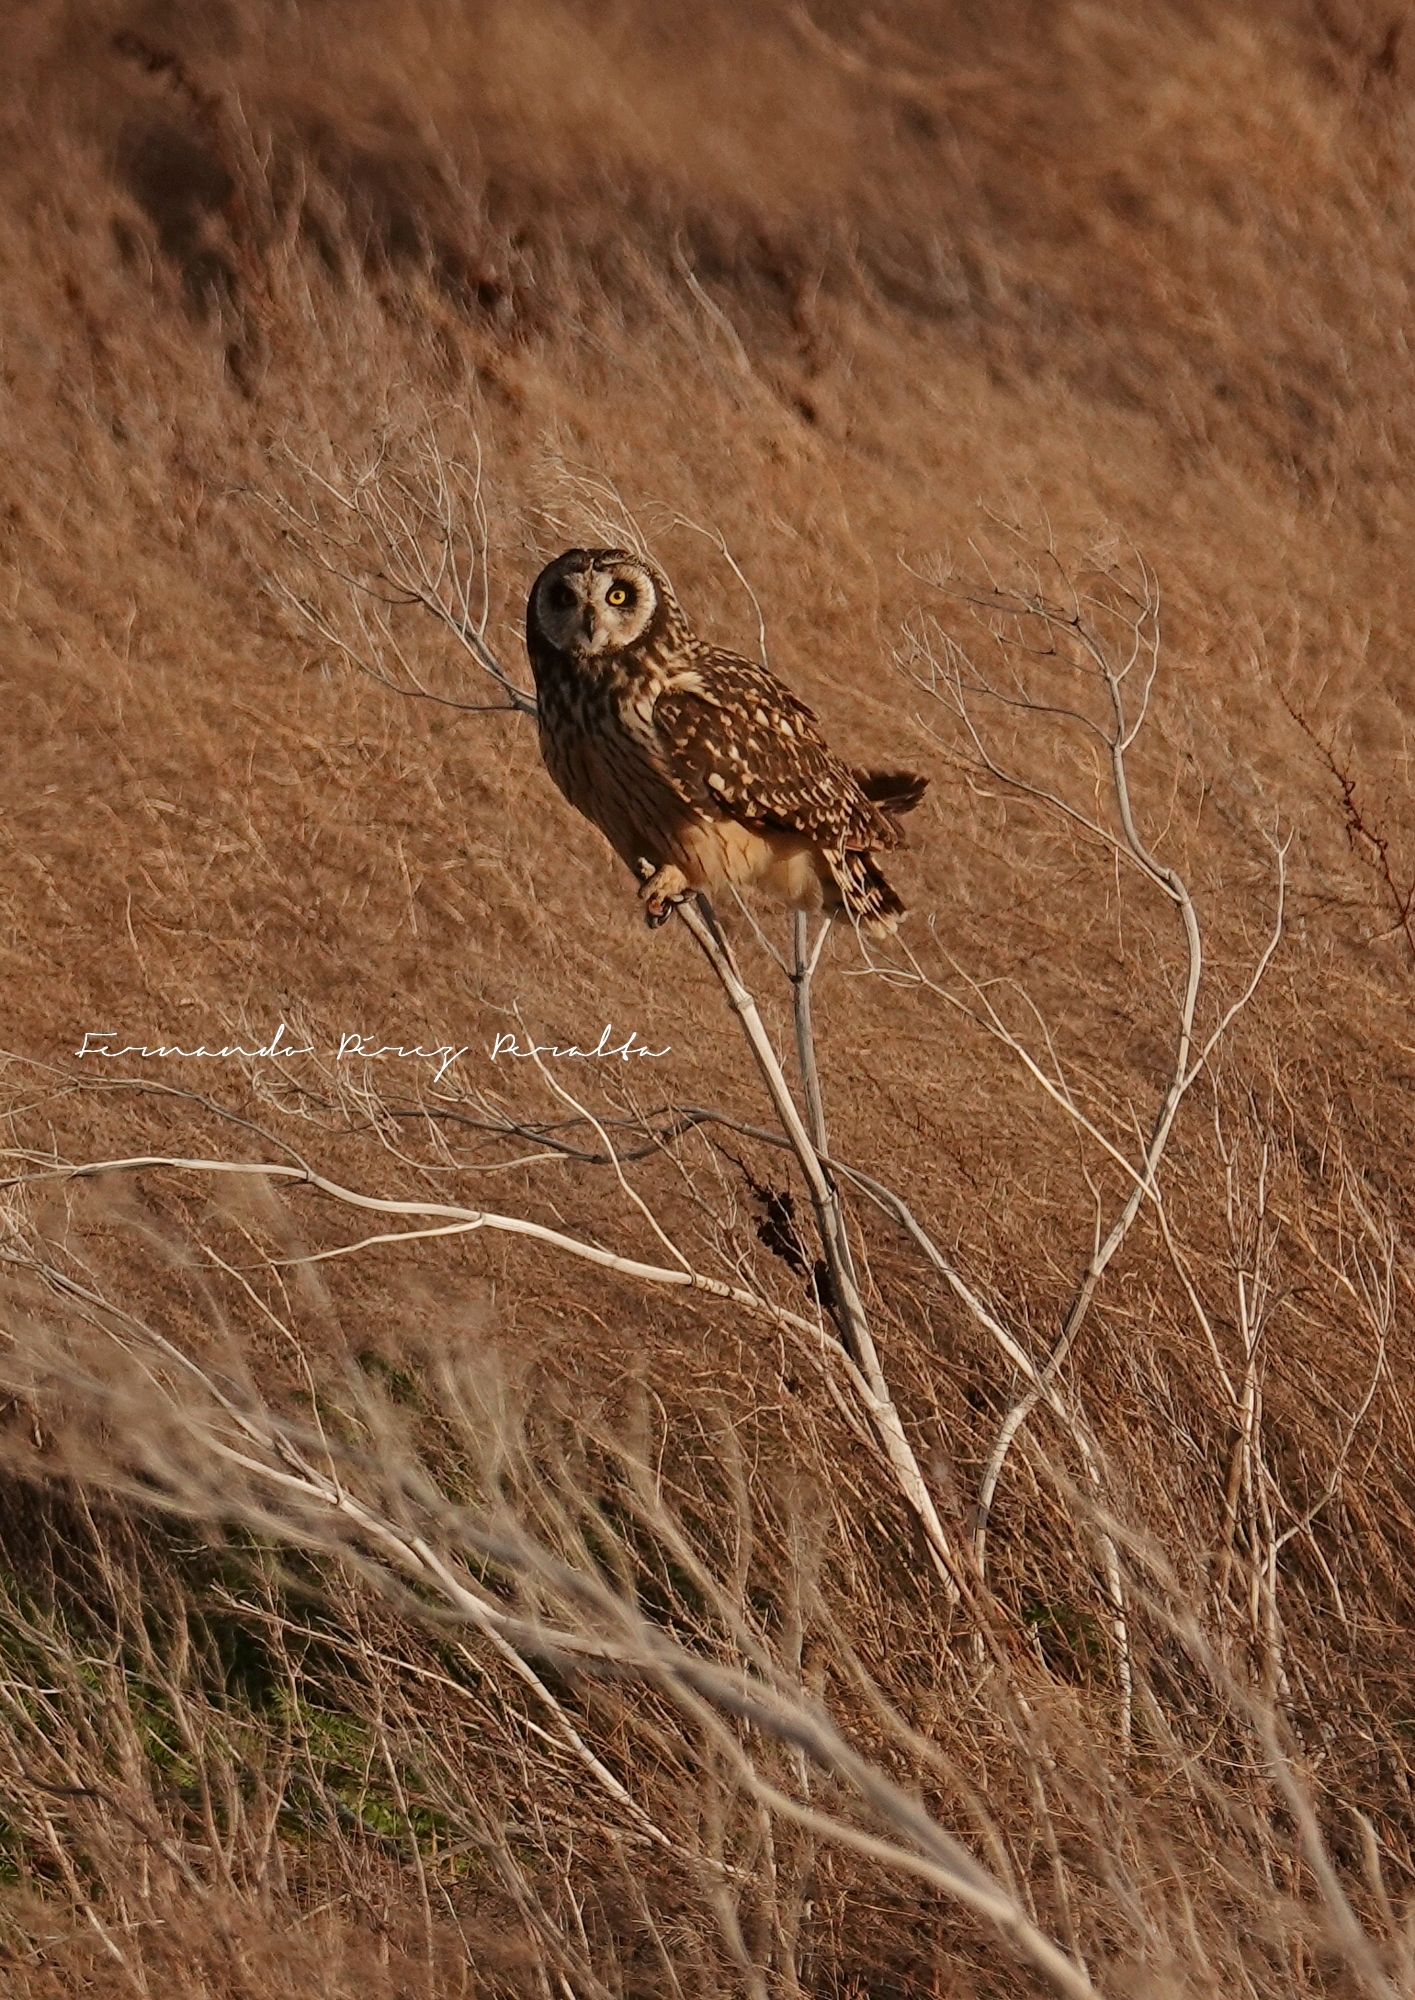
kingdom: Animalia
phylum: Chordata
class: Aves
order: Strigiformes
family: Strigidae
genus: Asio
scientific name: Asio flammeus
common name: Short-eared owl
